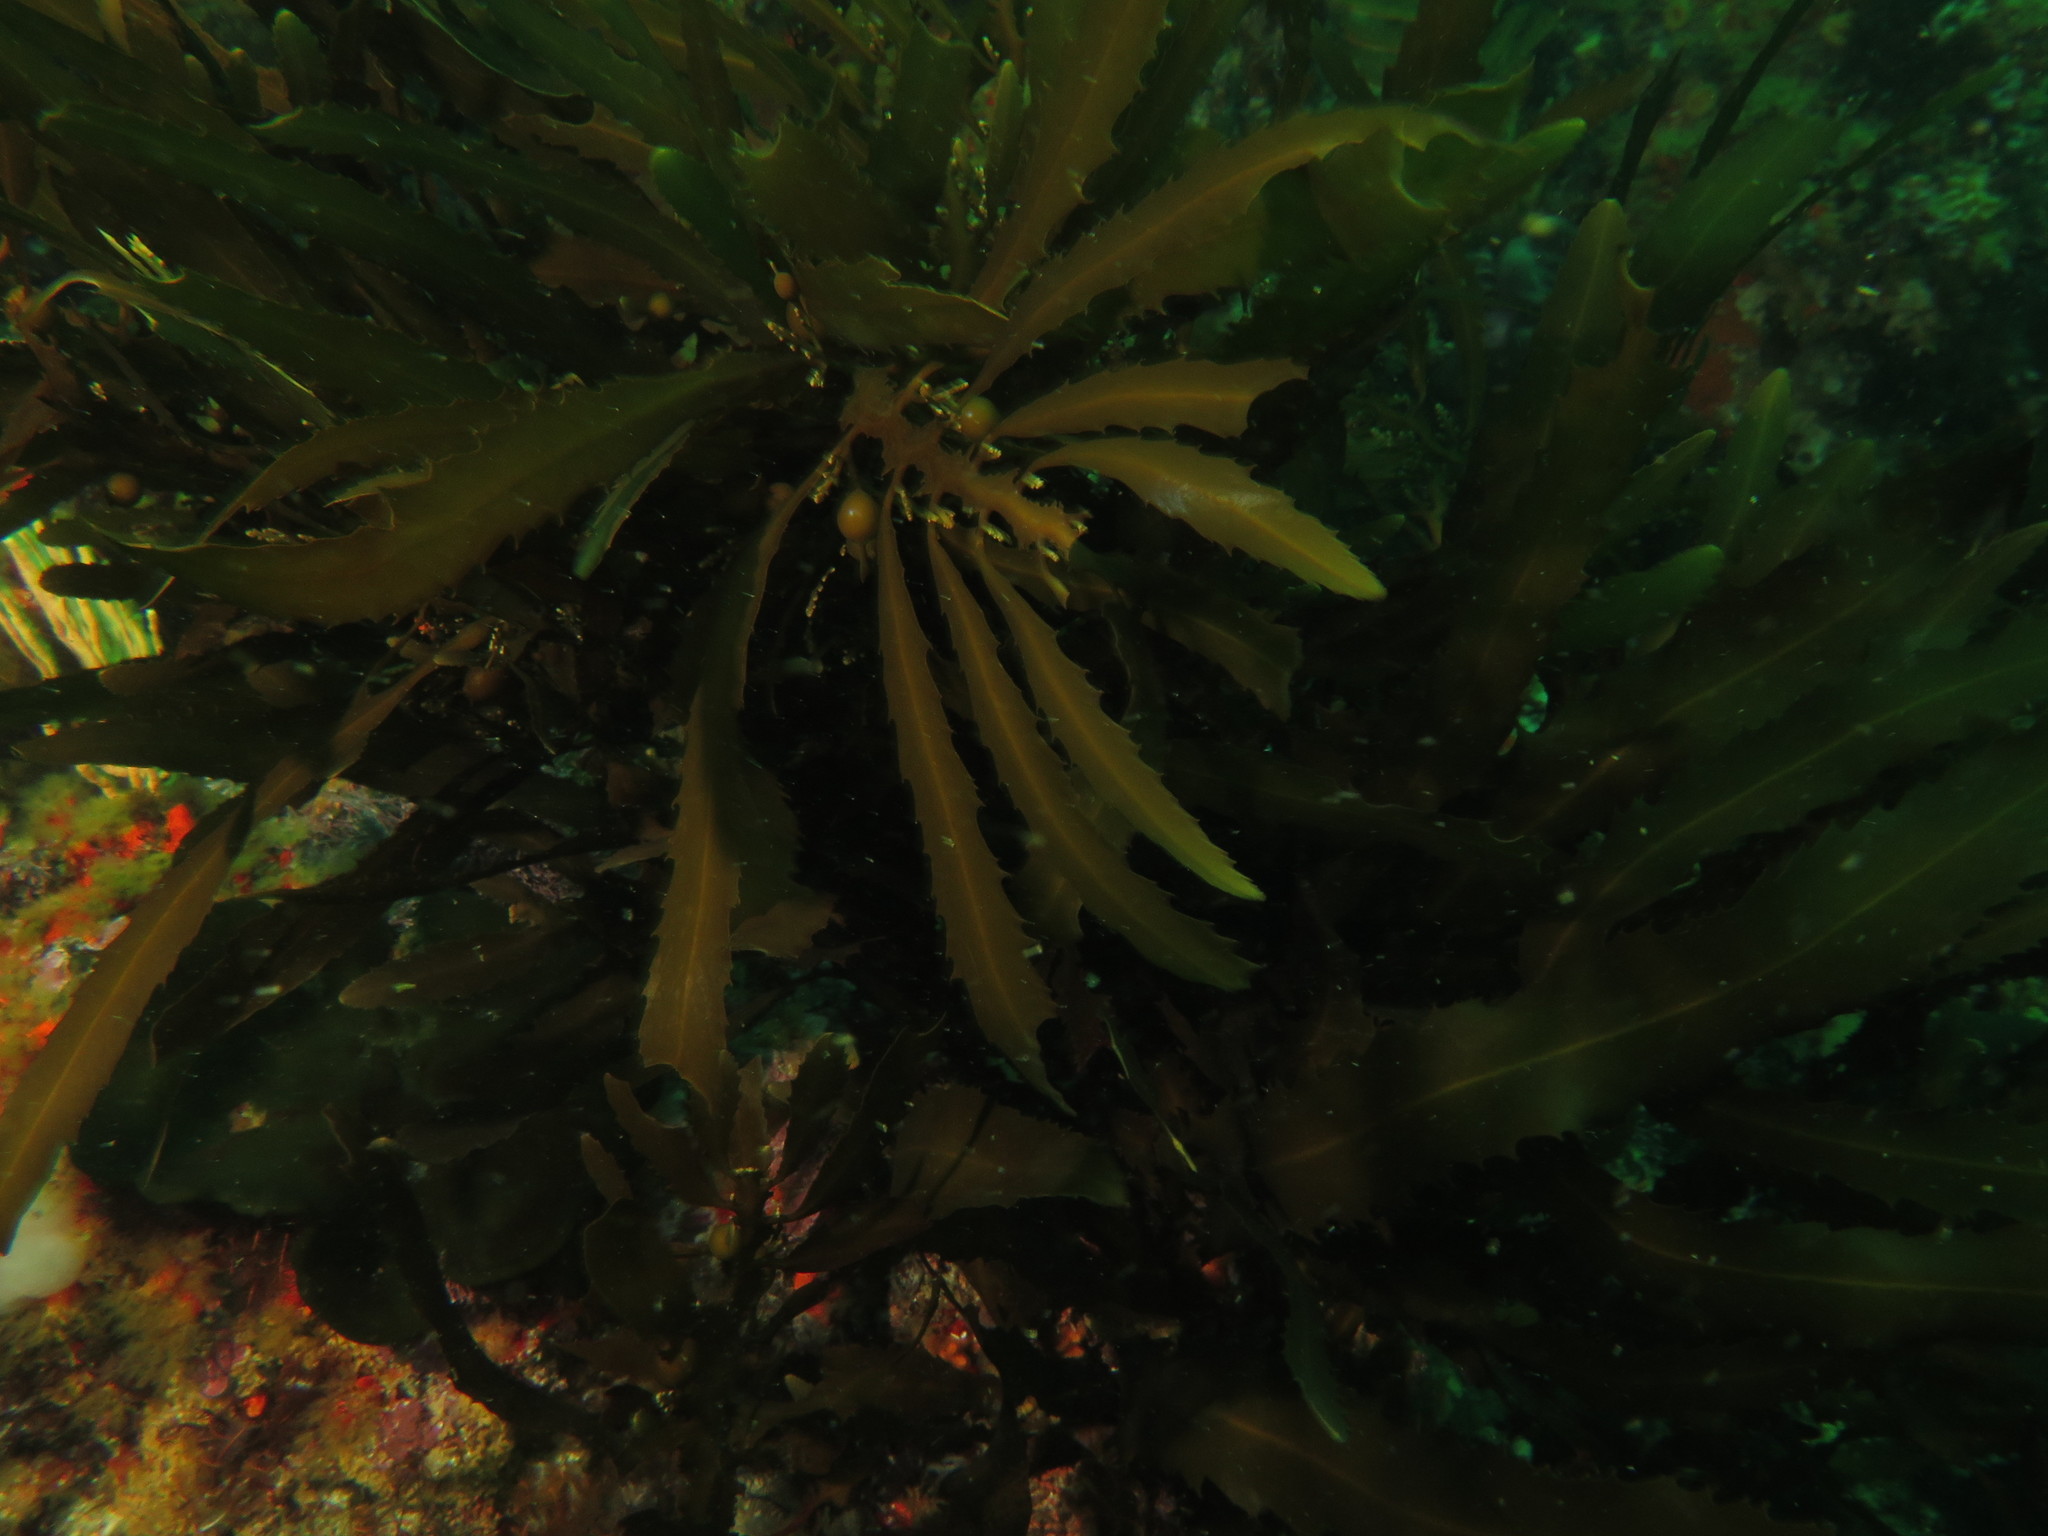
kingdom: Chromista
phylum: Ochrophyta
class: Phaeophyceae
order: Fucales
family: Sargassaceae
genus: Anthophycus
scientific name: Anthophycus
